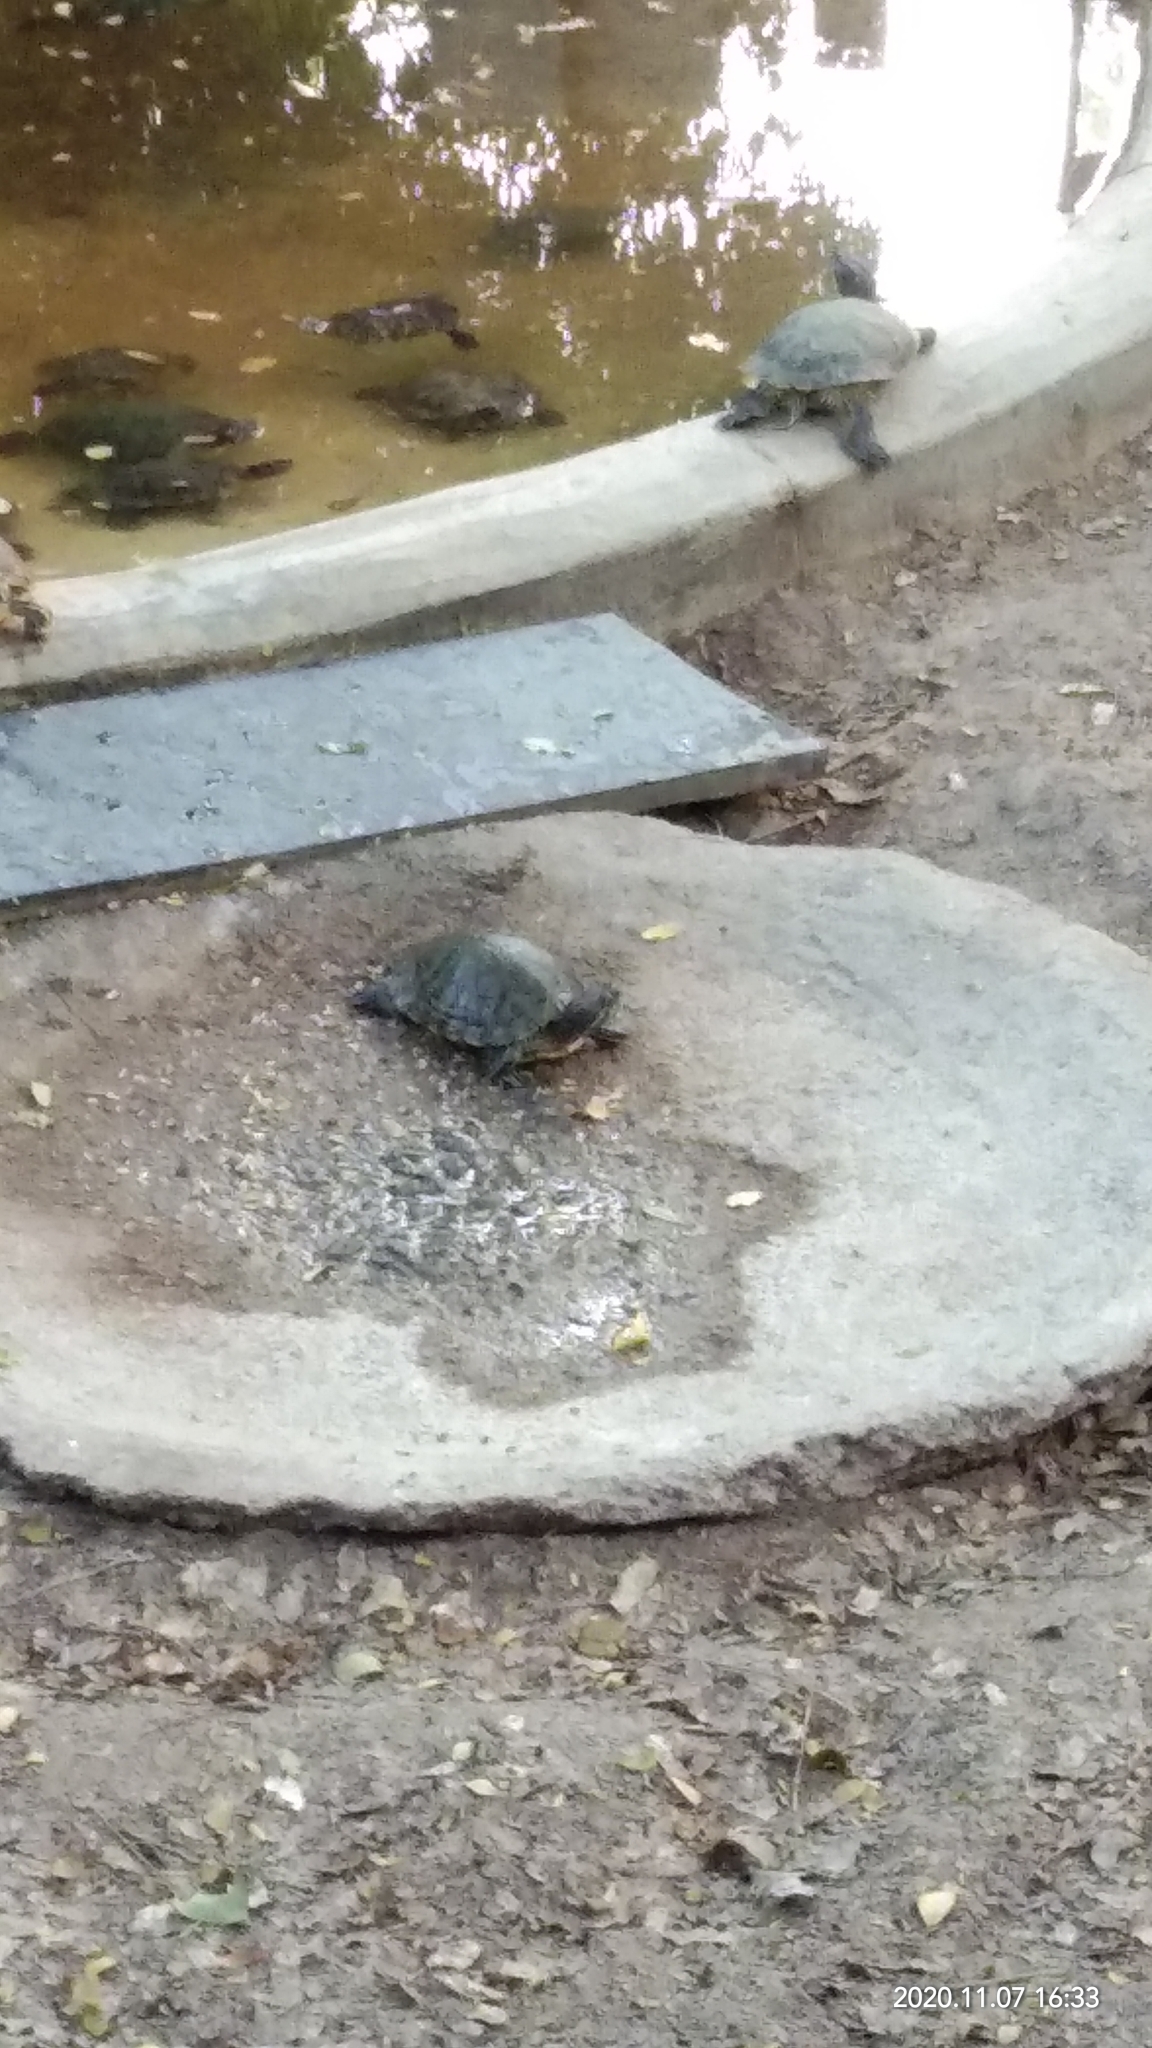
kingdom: Animalia
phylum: Chordata
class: Testudines
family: Emydidae
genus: Trachemys
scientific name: Trachemys scripta
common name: Slider
